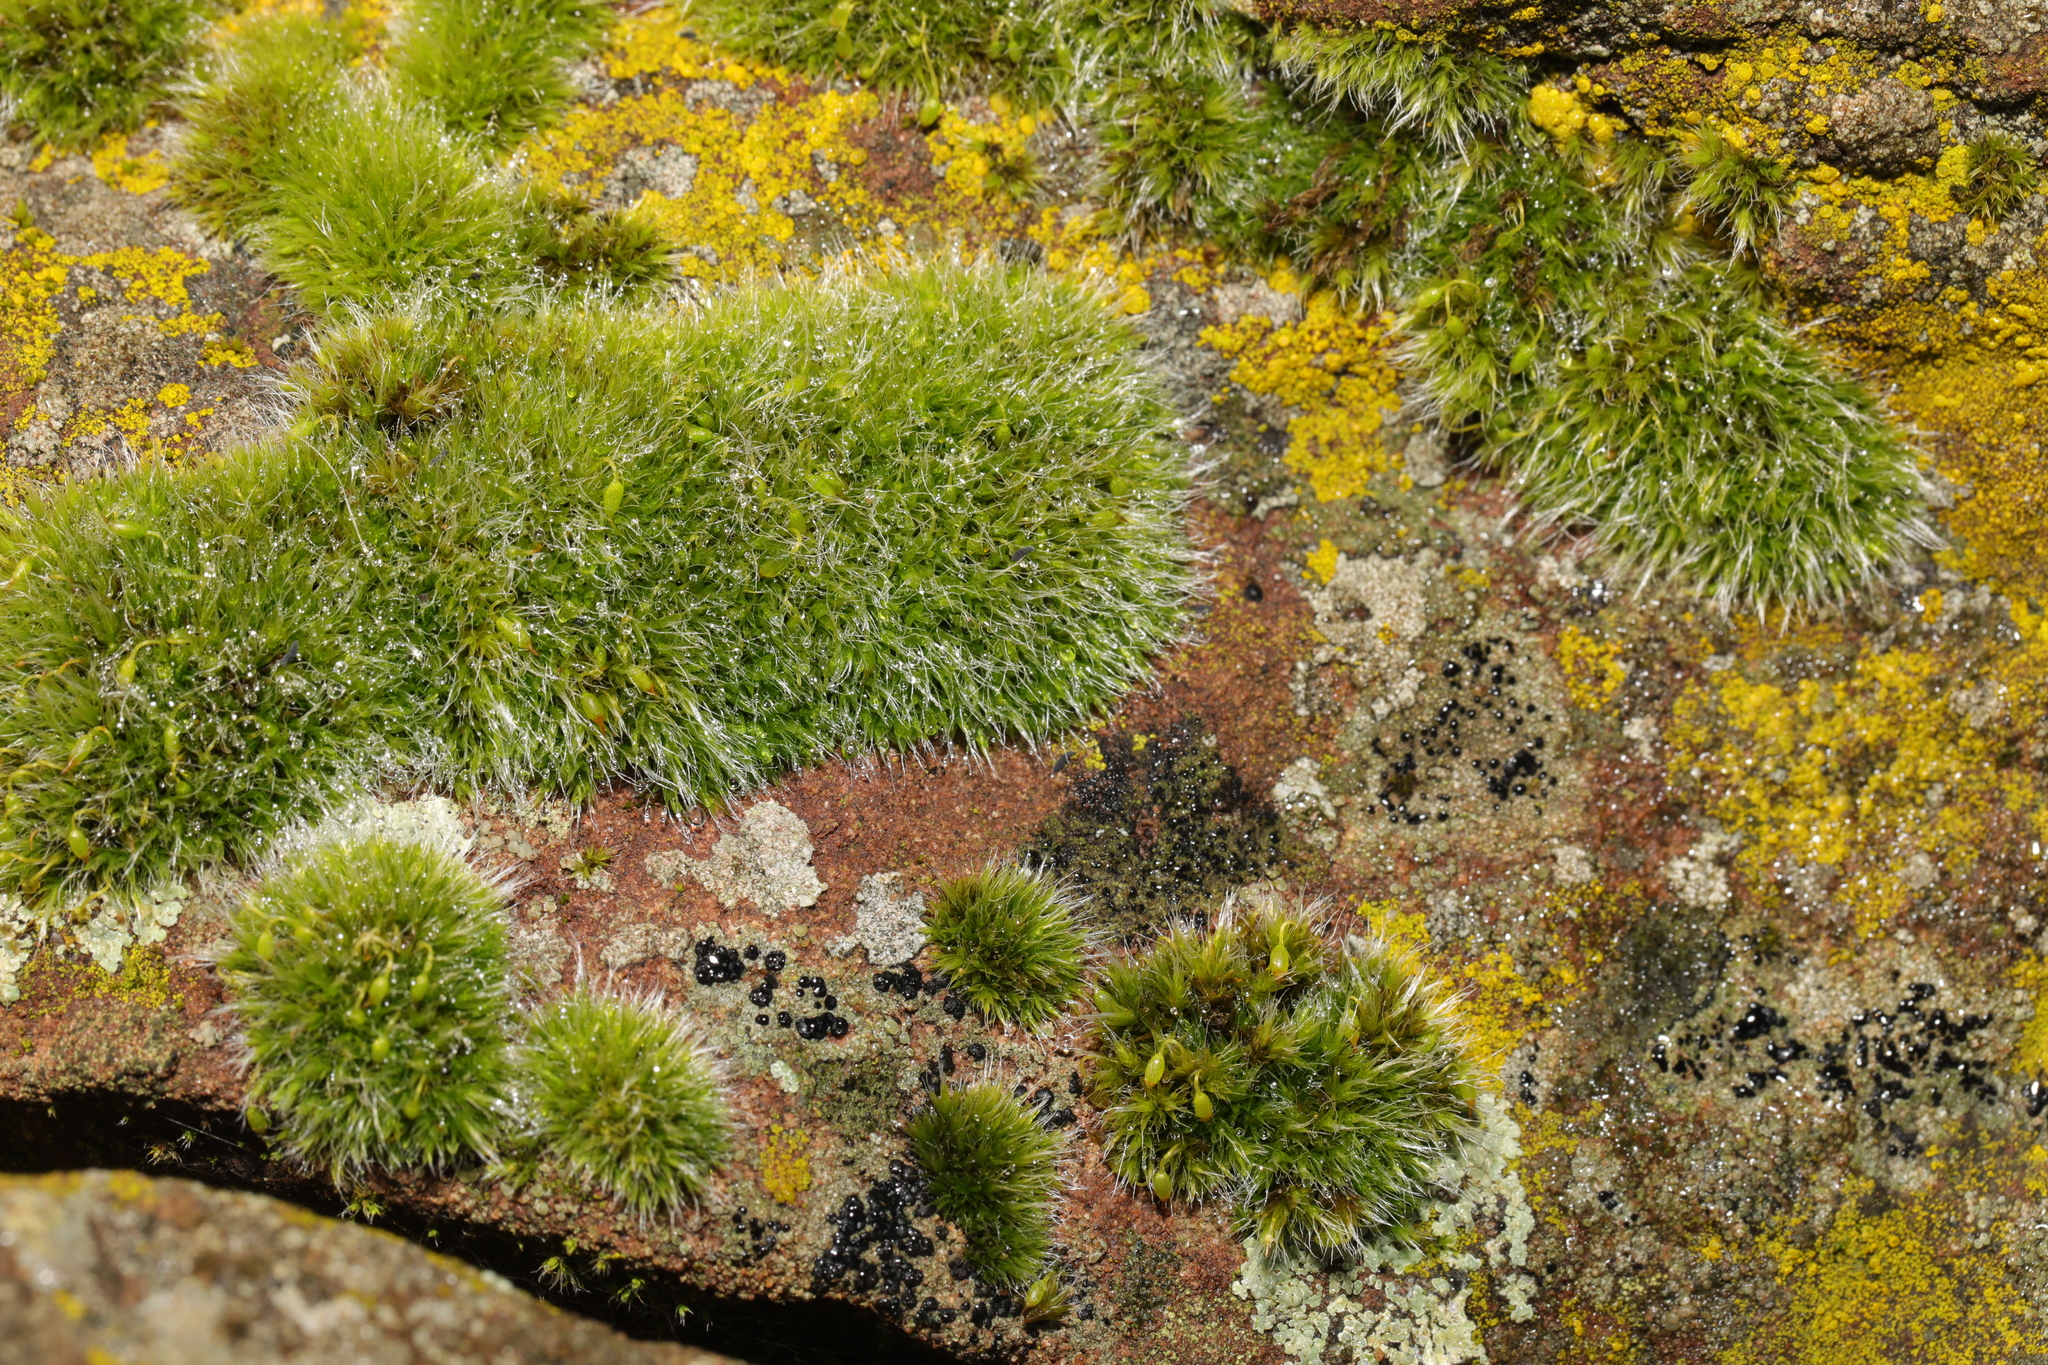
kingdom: Plantae
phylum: Bryophyta
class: Bryopsida
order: Grimmiales
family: Grimmiaceae
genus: Grimmia
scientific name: Grimmia pulvinata
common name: Grey-cushioned grimmia
